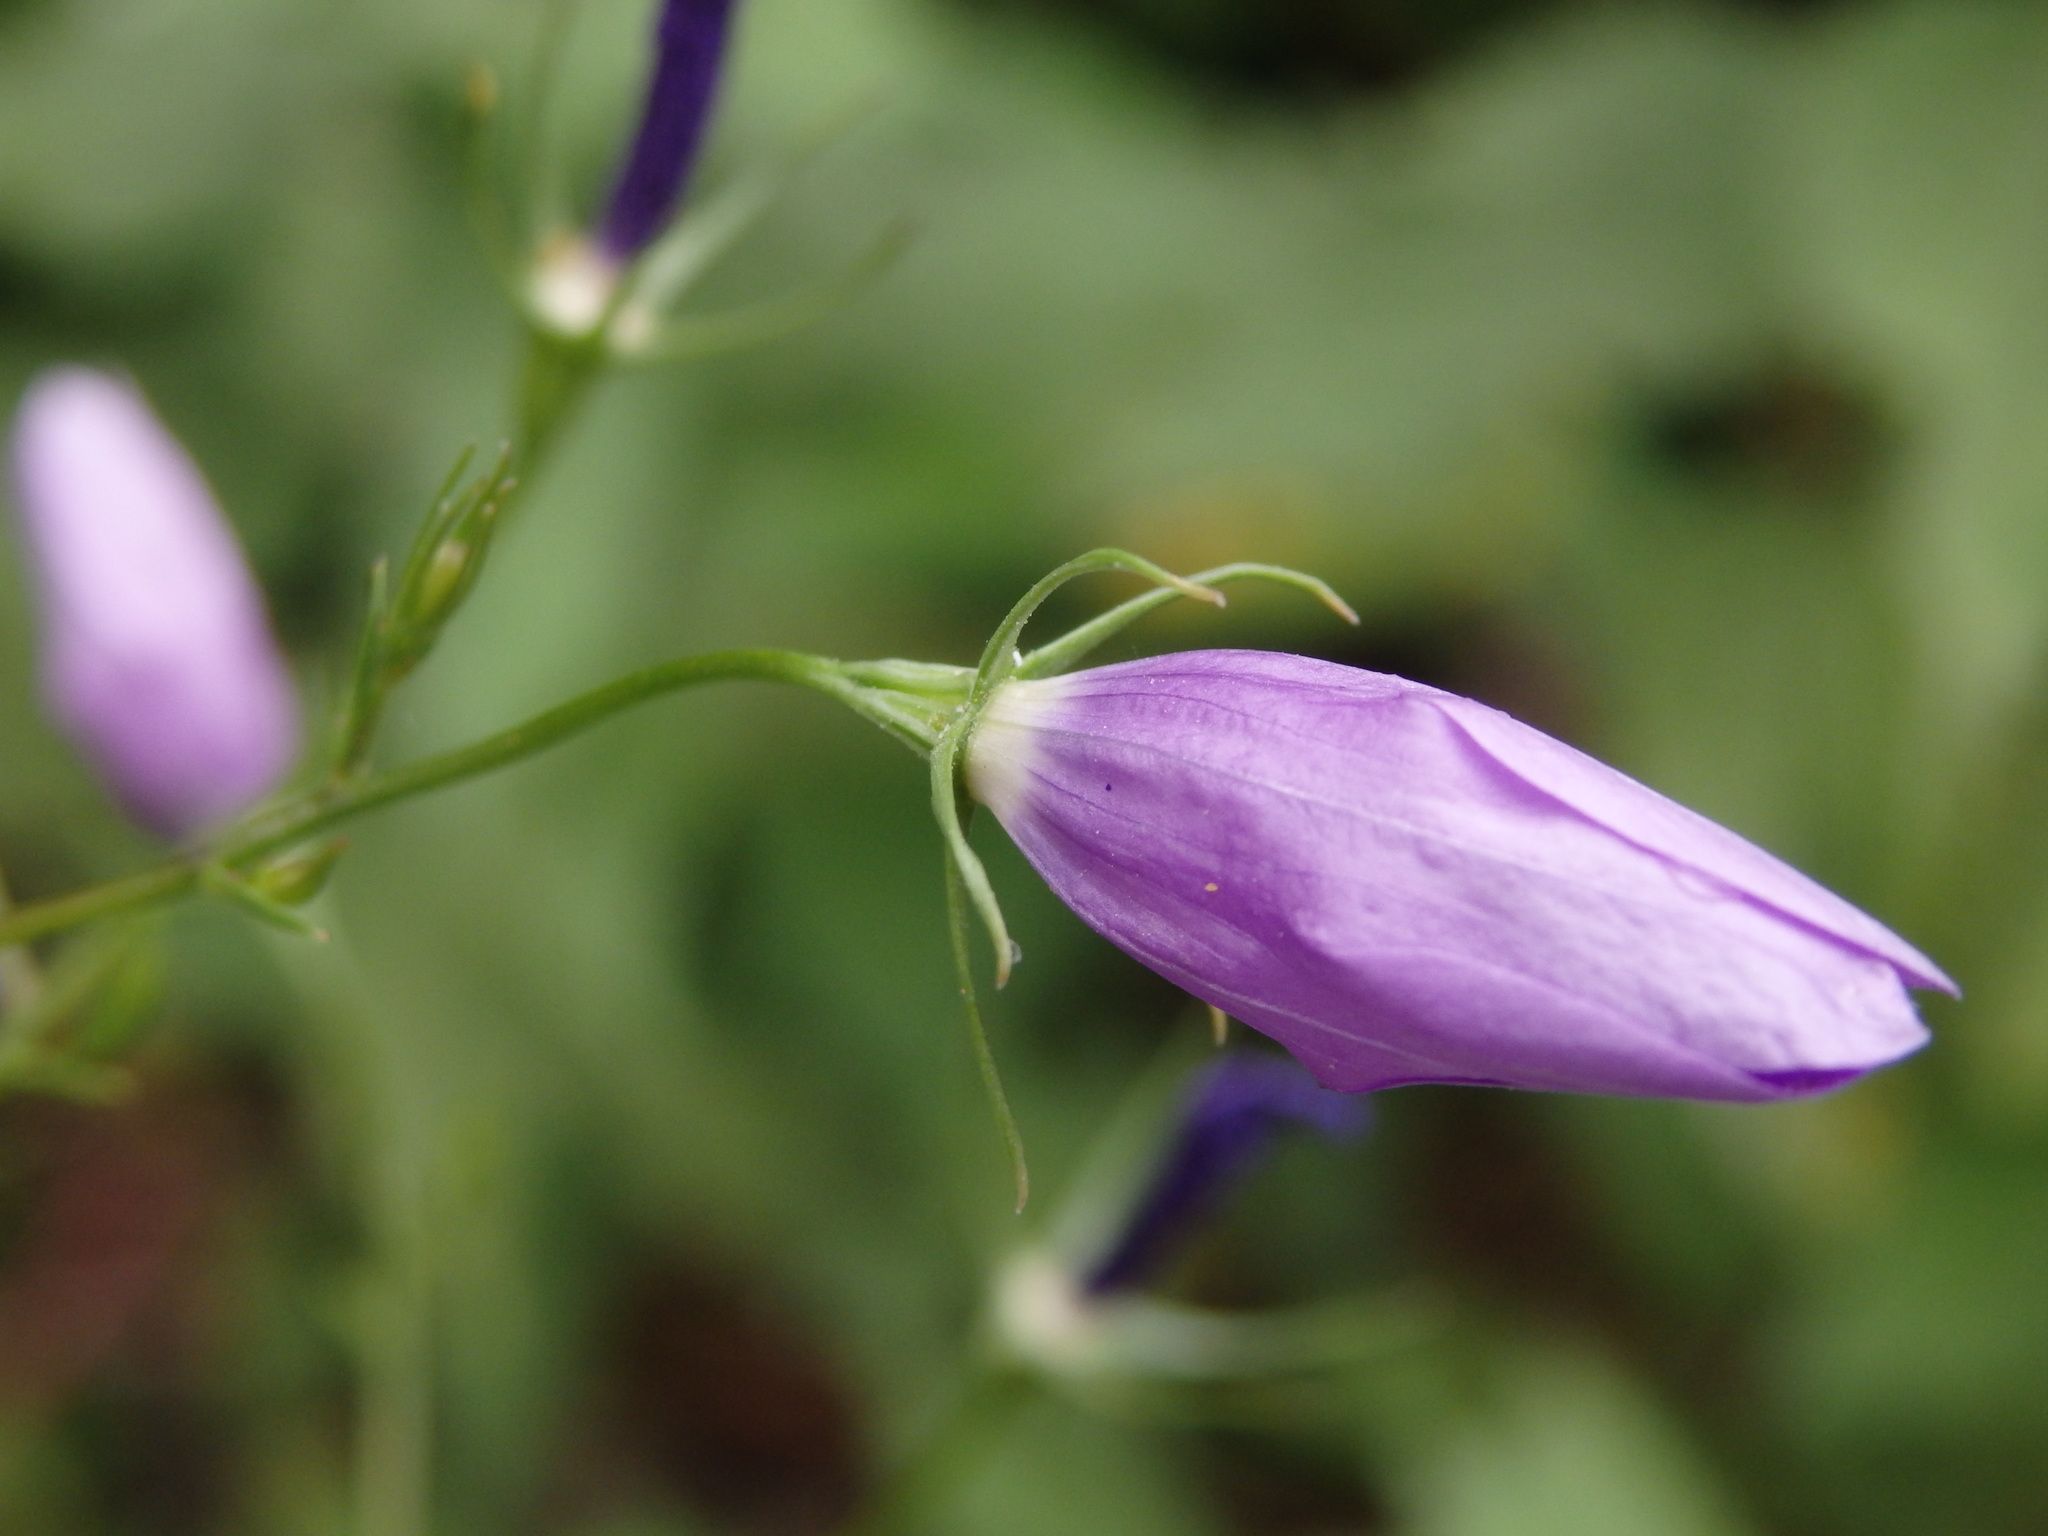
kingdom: Plantae
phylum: Tracheophyta
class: Magnoliopsida
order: Asterales
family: Campanulaceae
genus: Campanula
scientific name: Campanula lusitanica
